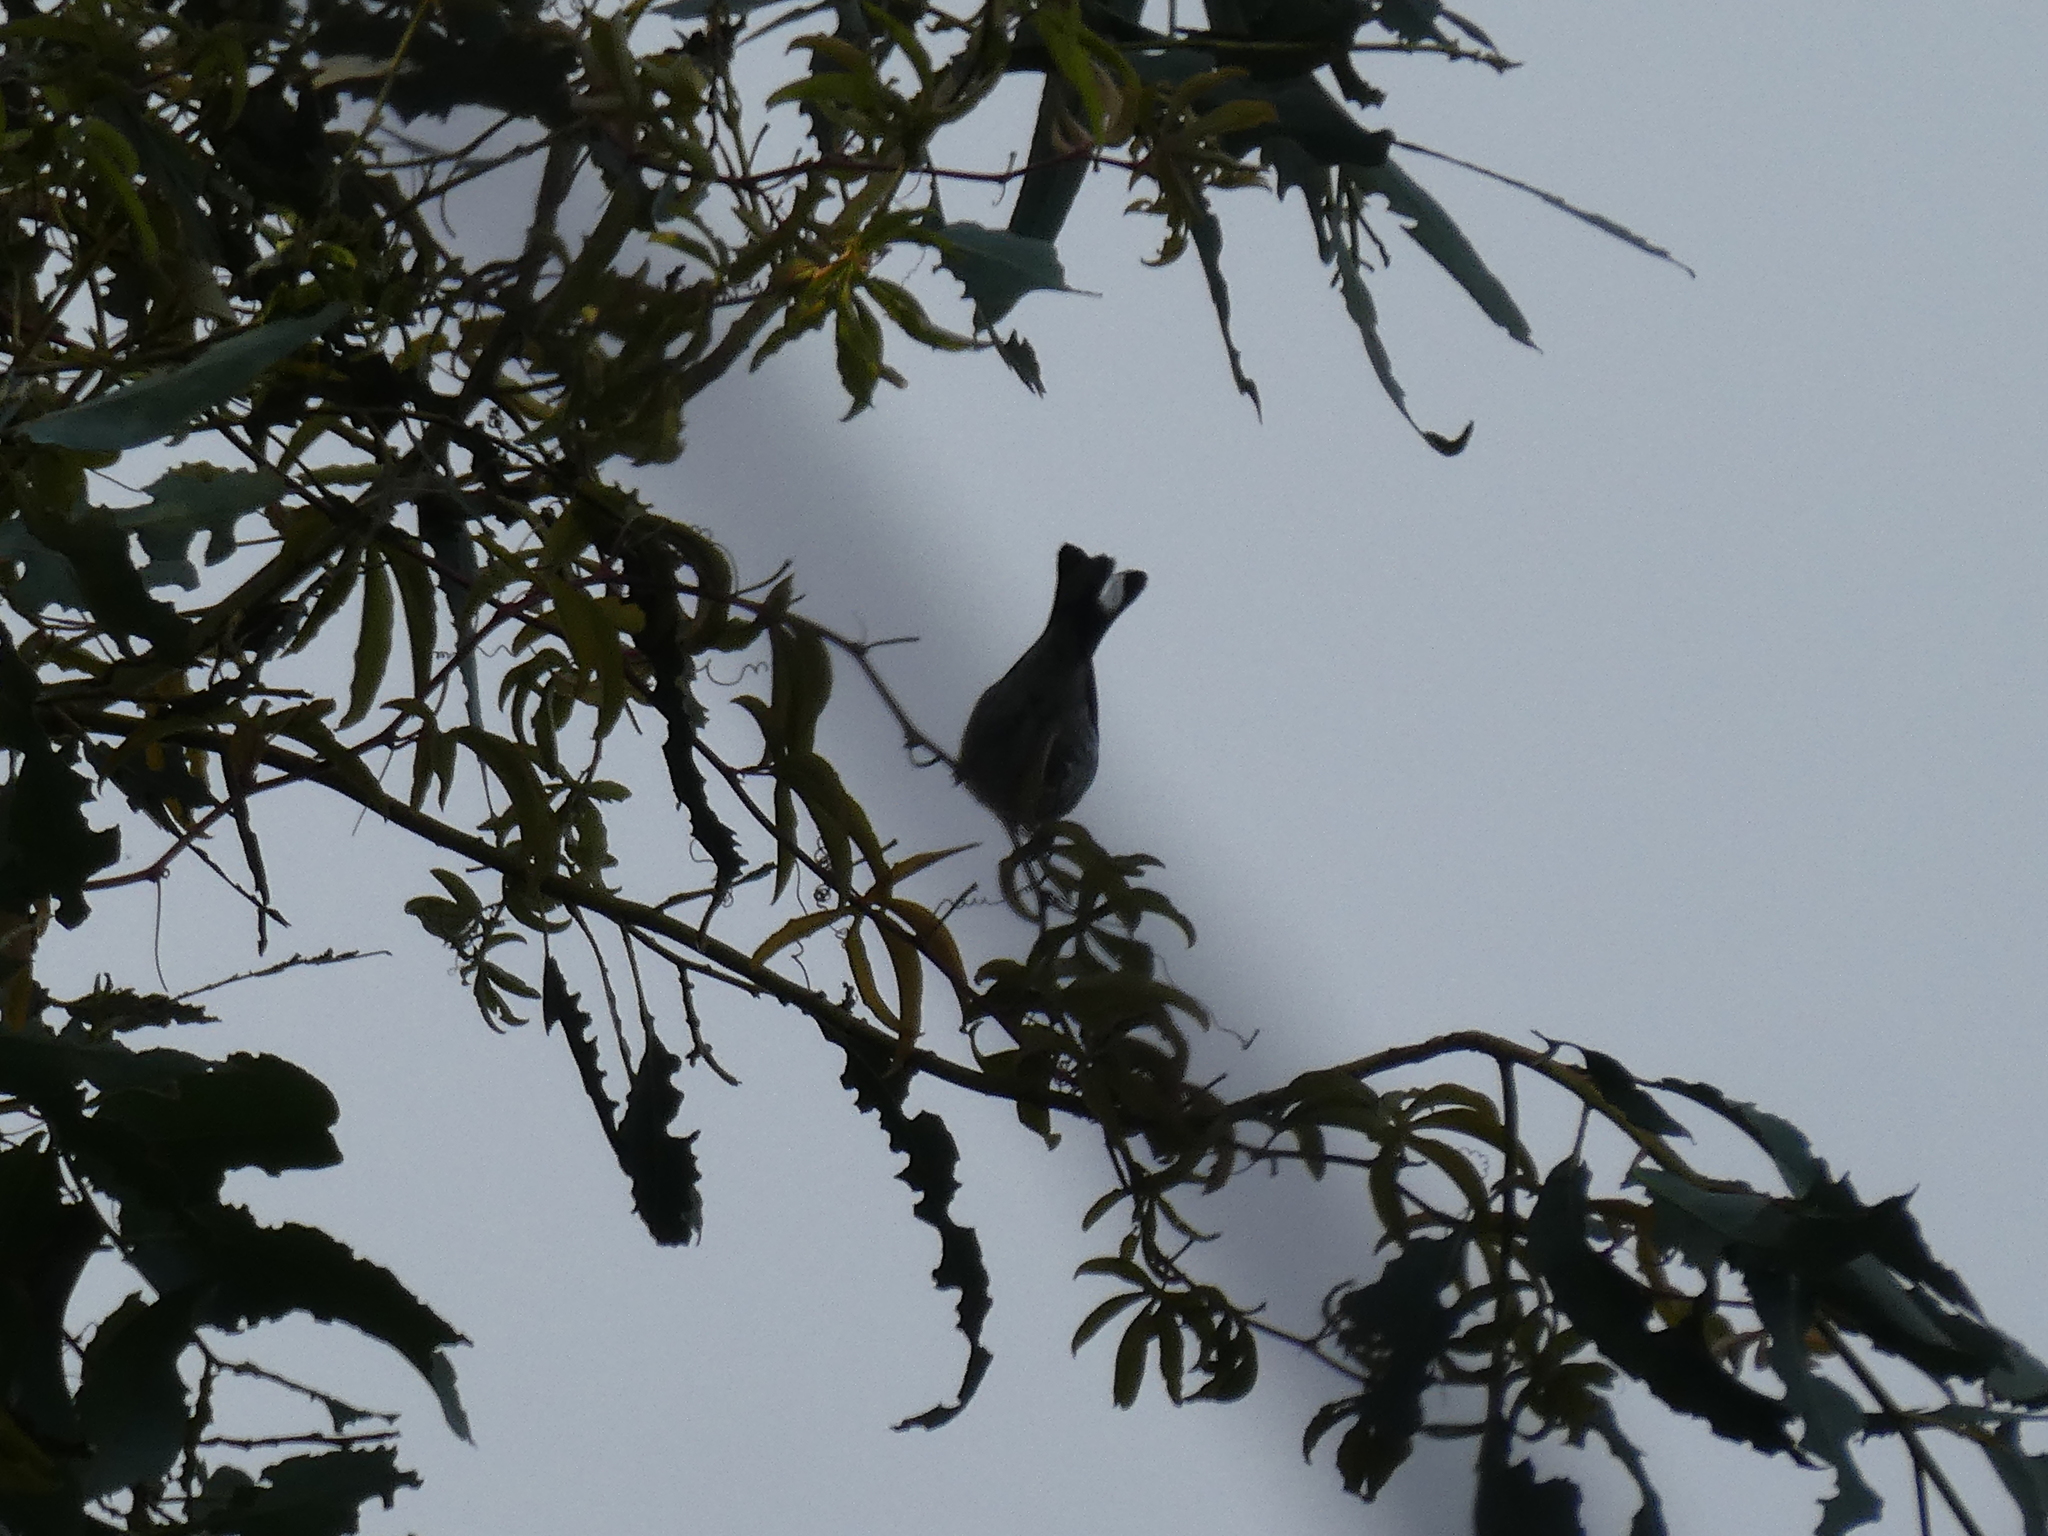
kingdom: Animalia
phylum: Chordata
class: Aves
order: Passeriformes
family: Parulidae
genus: Setophaga
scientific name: Setophaga
